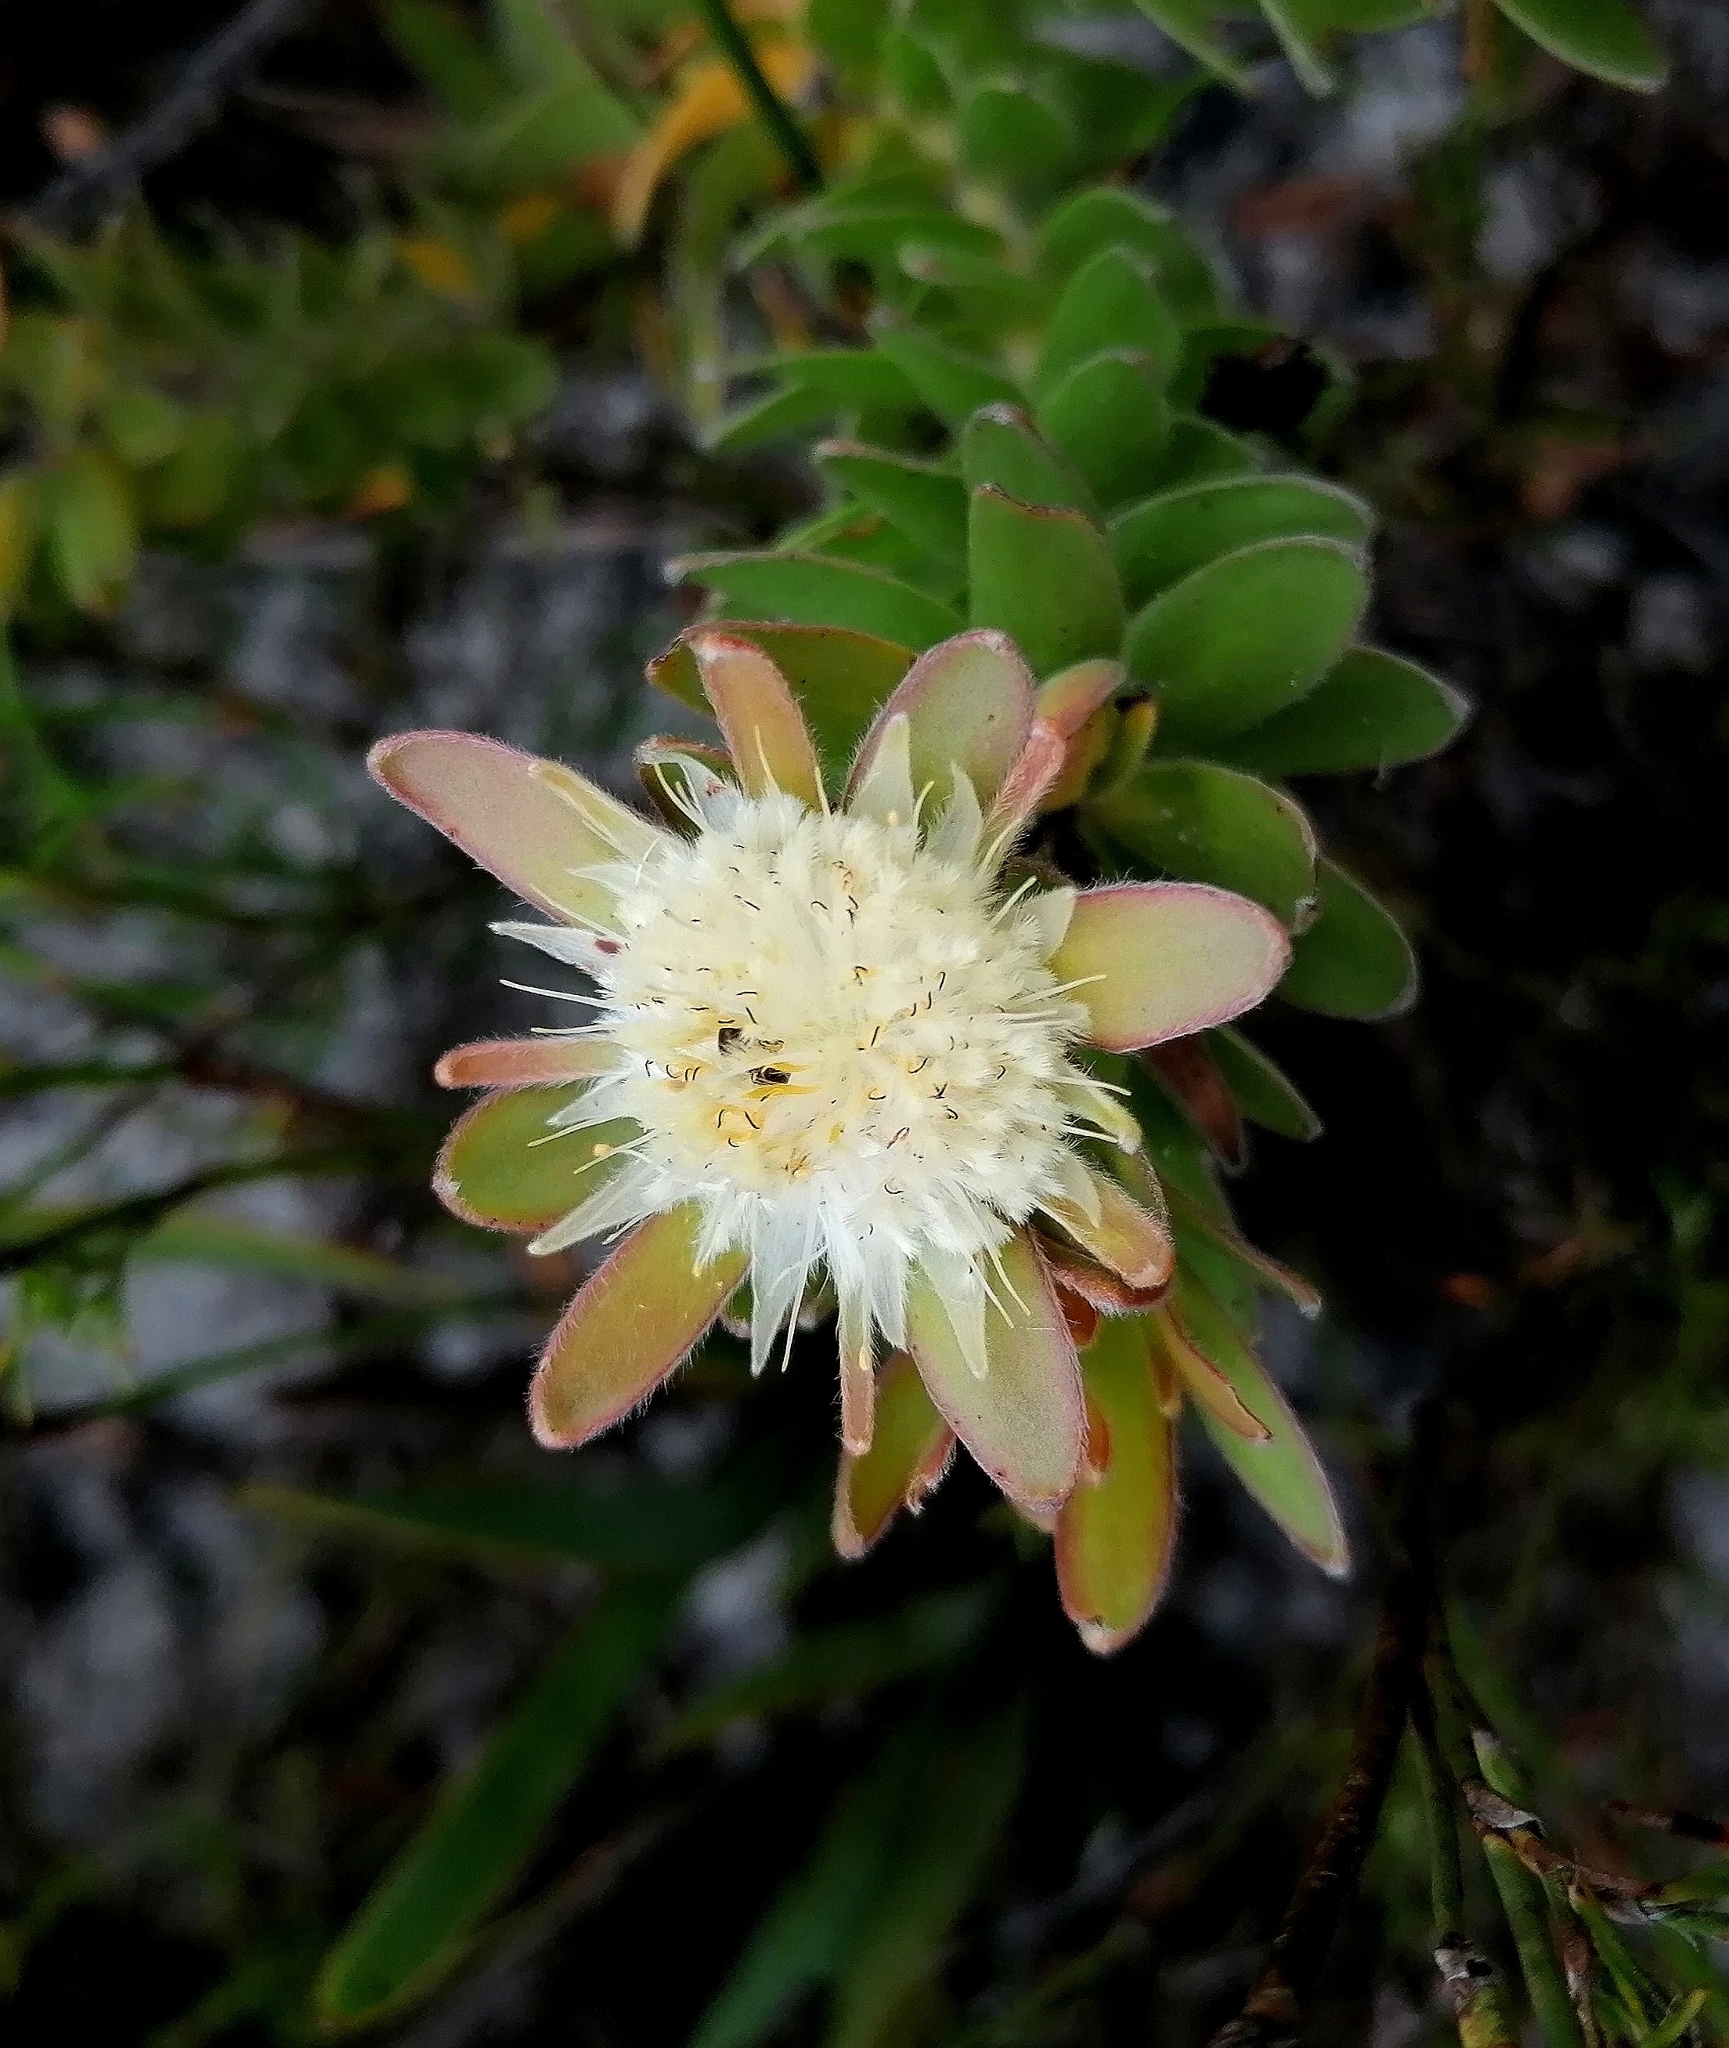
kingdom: Plantae
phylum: Tracheophyta
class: Magnoliopsida
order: Proteales
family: Proteaceae
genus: Diastella
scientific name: Diastella thymelaeoides
